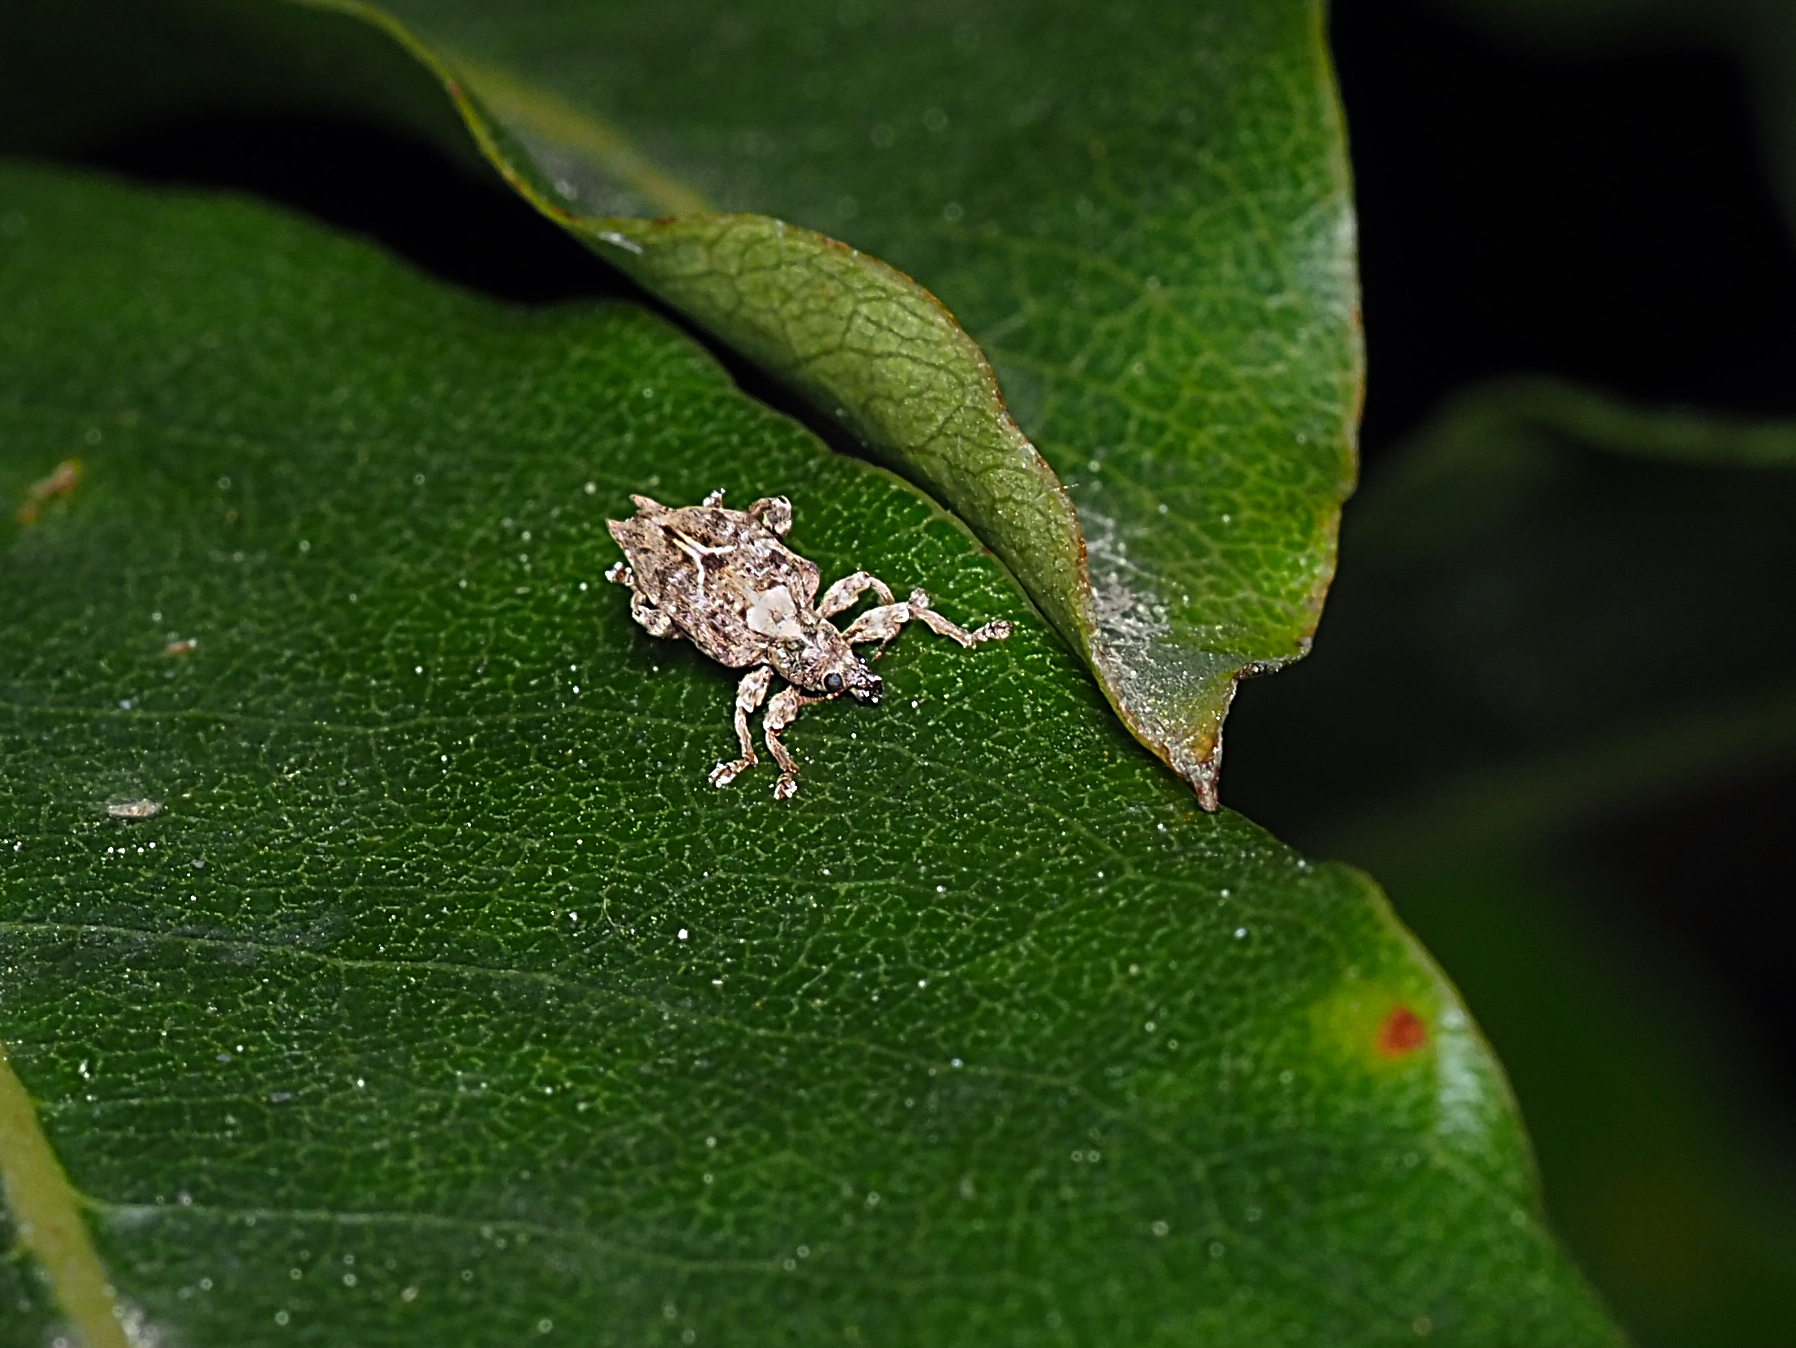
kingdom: Animalia
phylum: Arthropoda
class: Insecta
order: Coleoptera
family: Curculionidae
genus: Austrocis
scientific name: Austrocis
